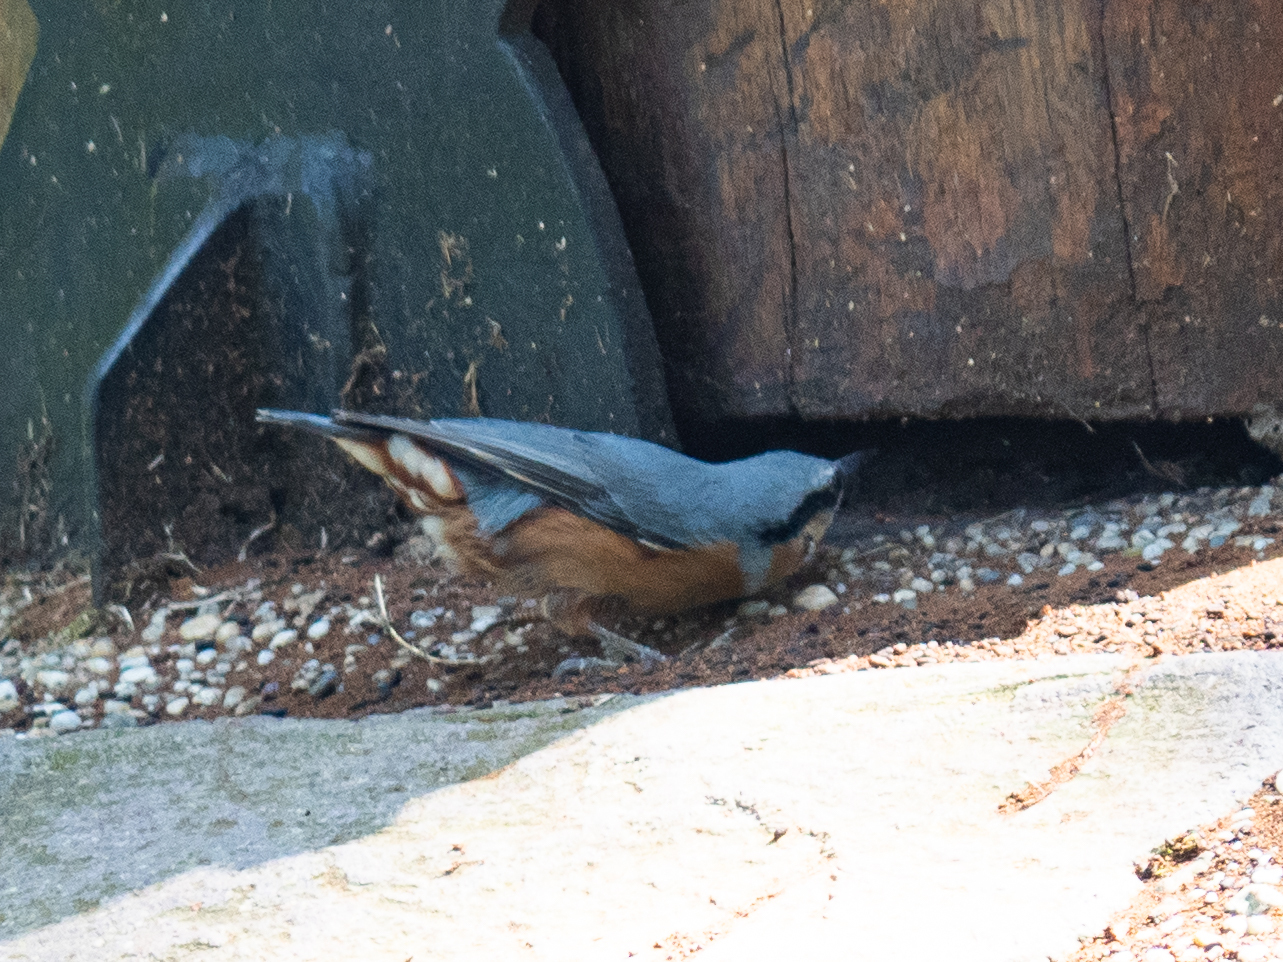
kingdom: Animalia
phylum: Chordata
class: Aves
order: Passeriformes
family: Sittidae
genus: Sitta
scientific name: Sitta europaea
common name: Eurasian nuthatch
